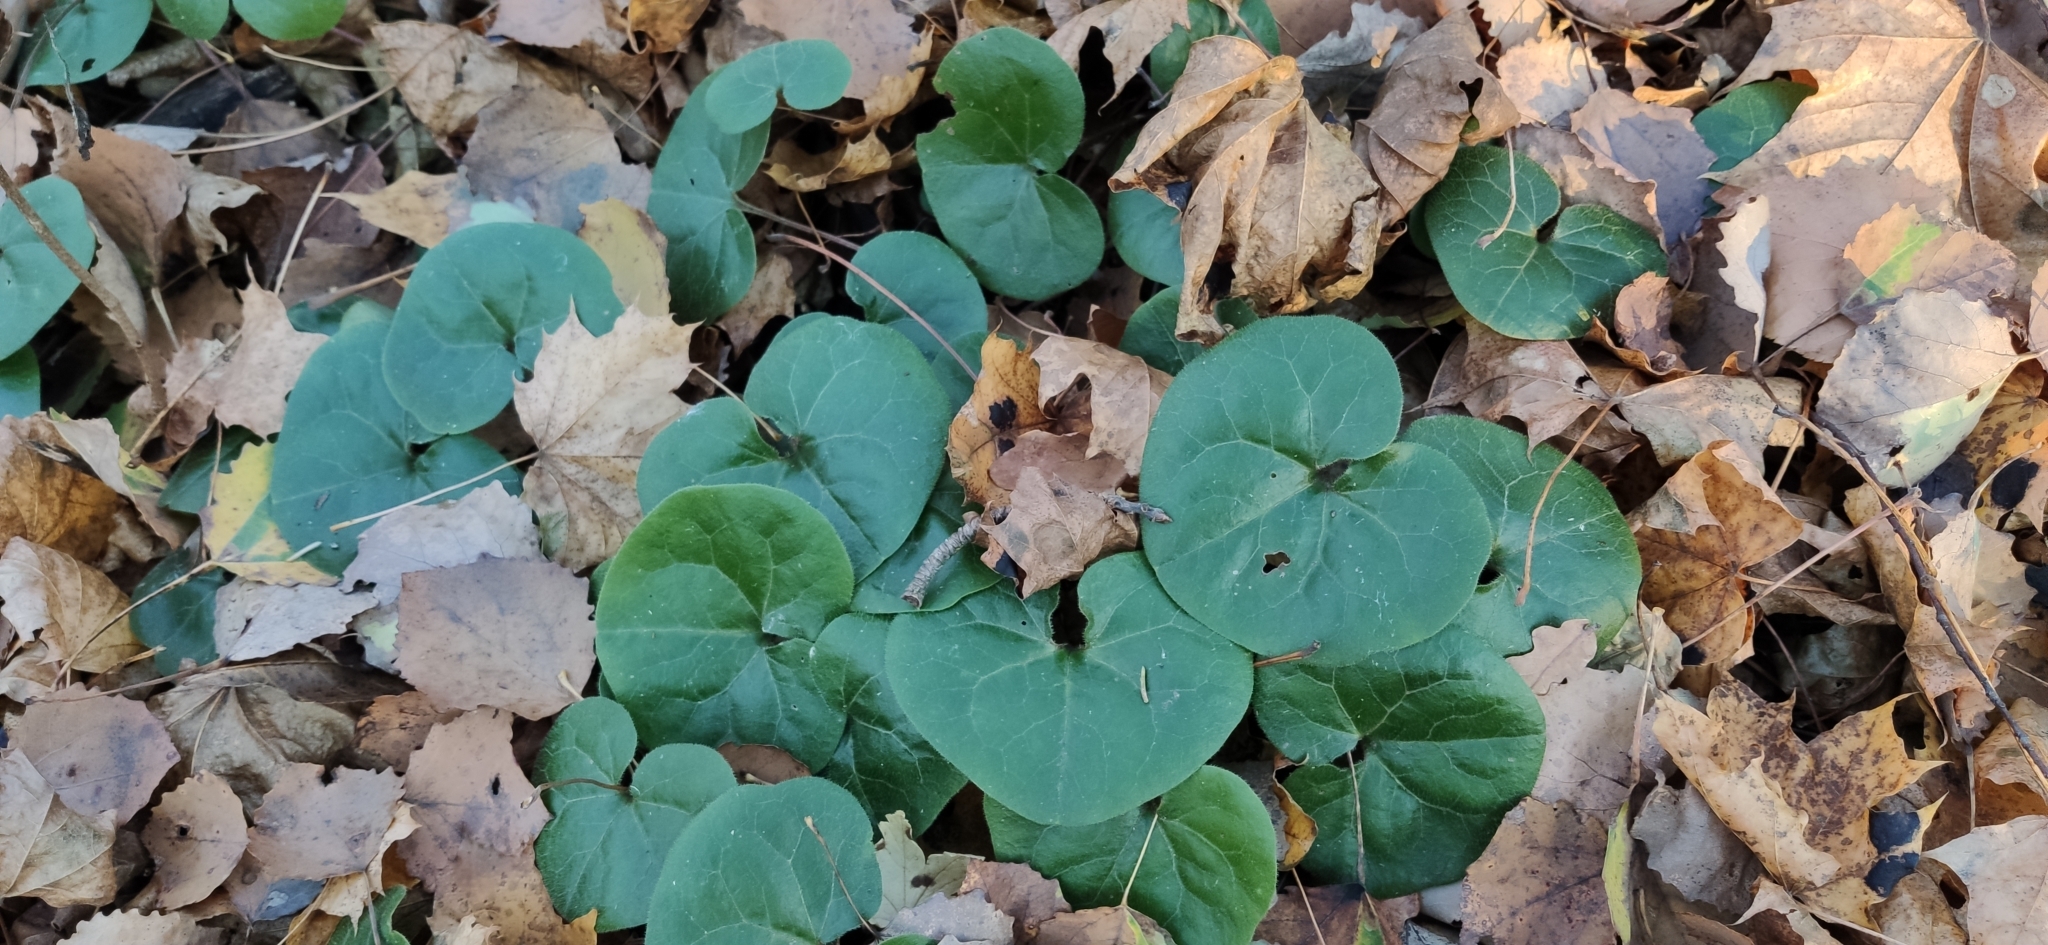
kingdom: Plantae
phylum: Tracheophyta
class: Magnoliopsida
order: Piperales
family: Aristolochiaceae
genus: Asarum
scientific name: Asarum europaeum
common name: Asarabacca
